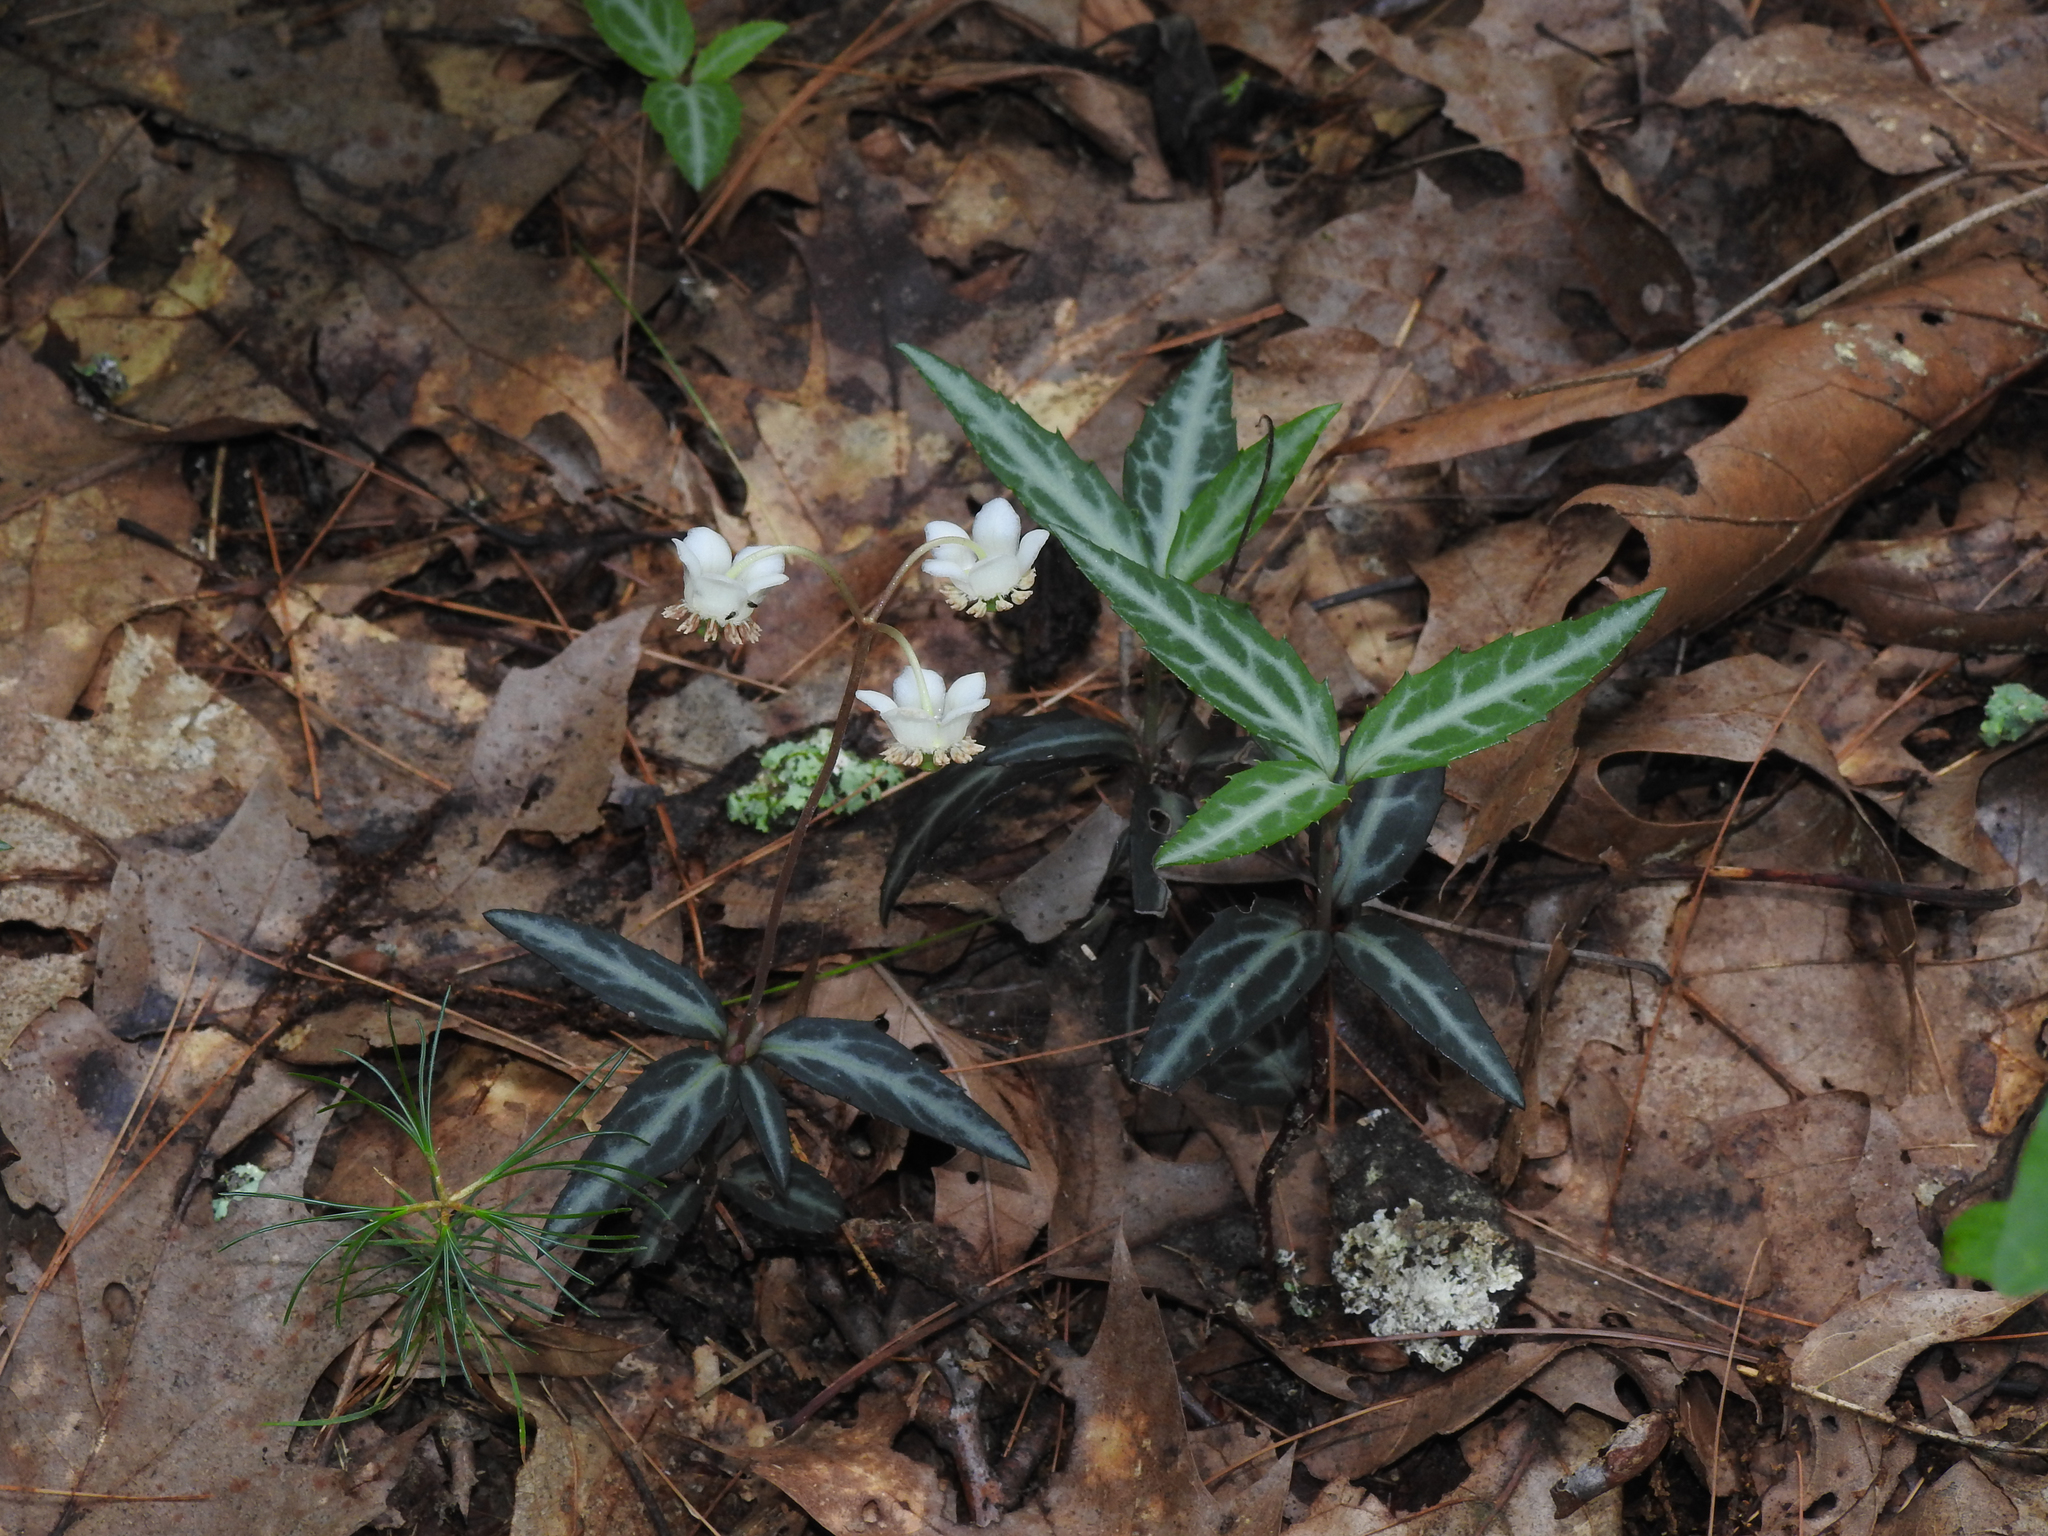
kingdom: Plantae
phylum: Tracheophyta
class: Magnoliopsida
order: Ericales
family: Ericaceae
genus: Chimaphila
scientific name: Chimaphila maculata
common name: Spotted pipsissewa
